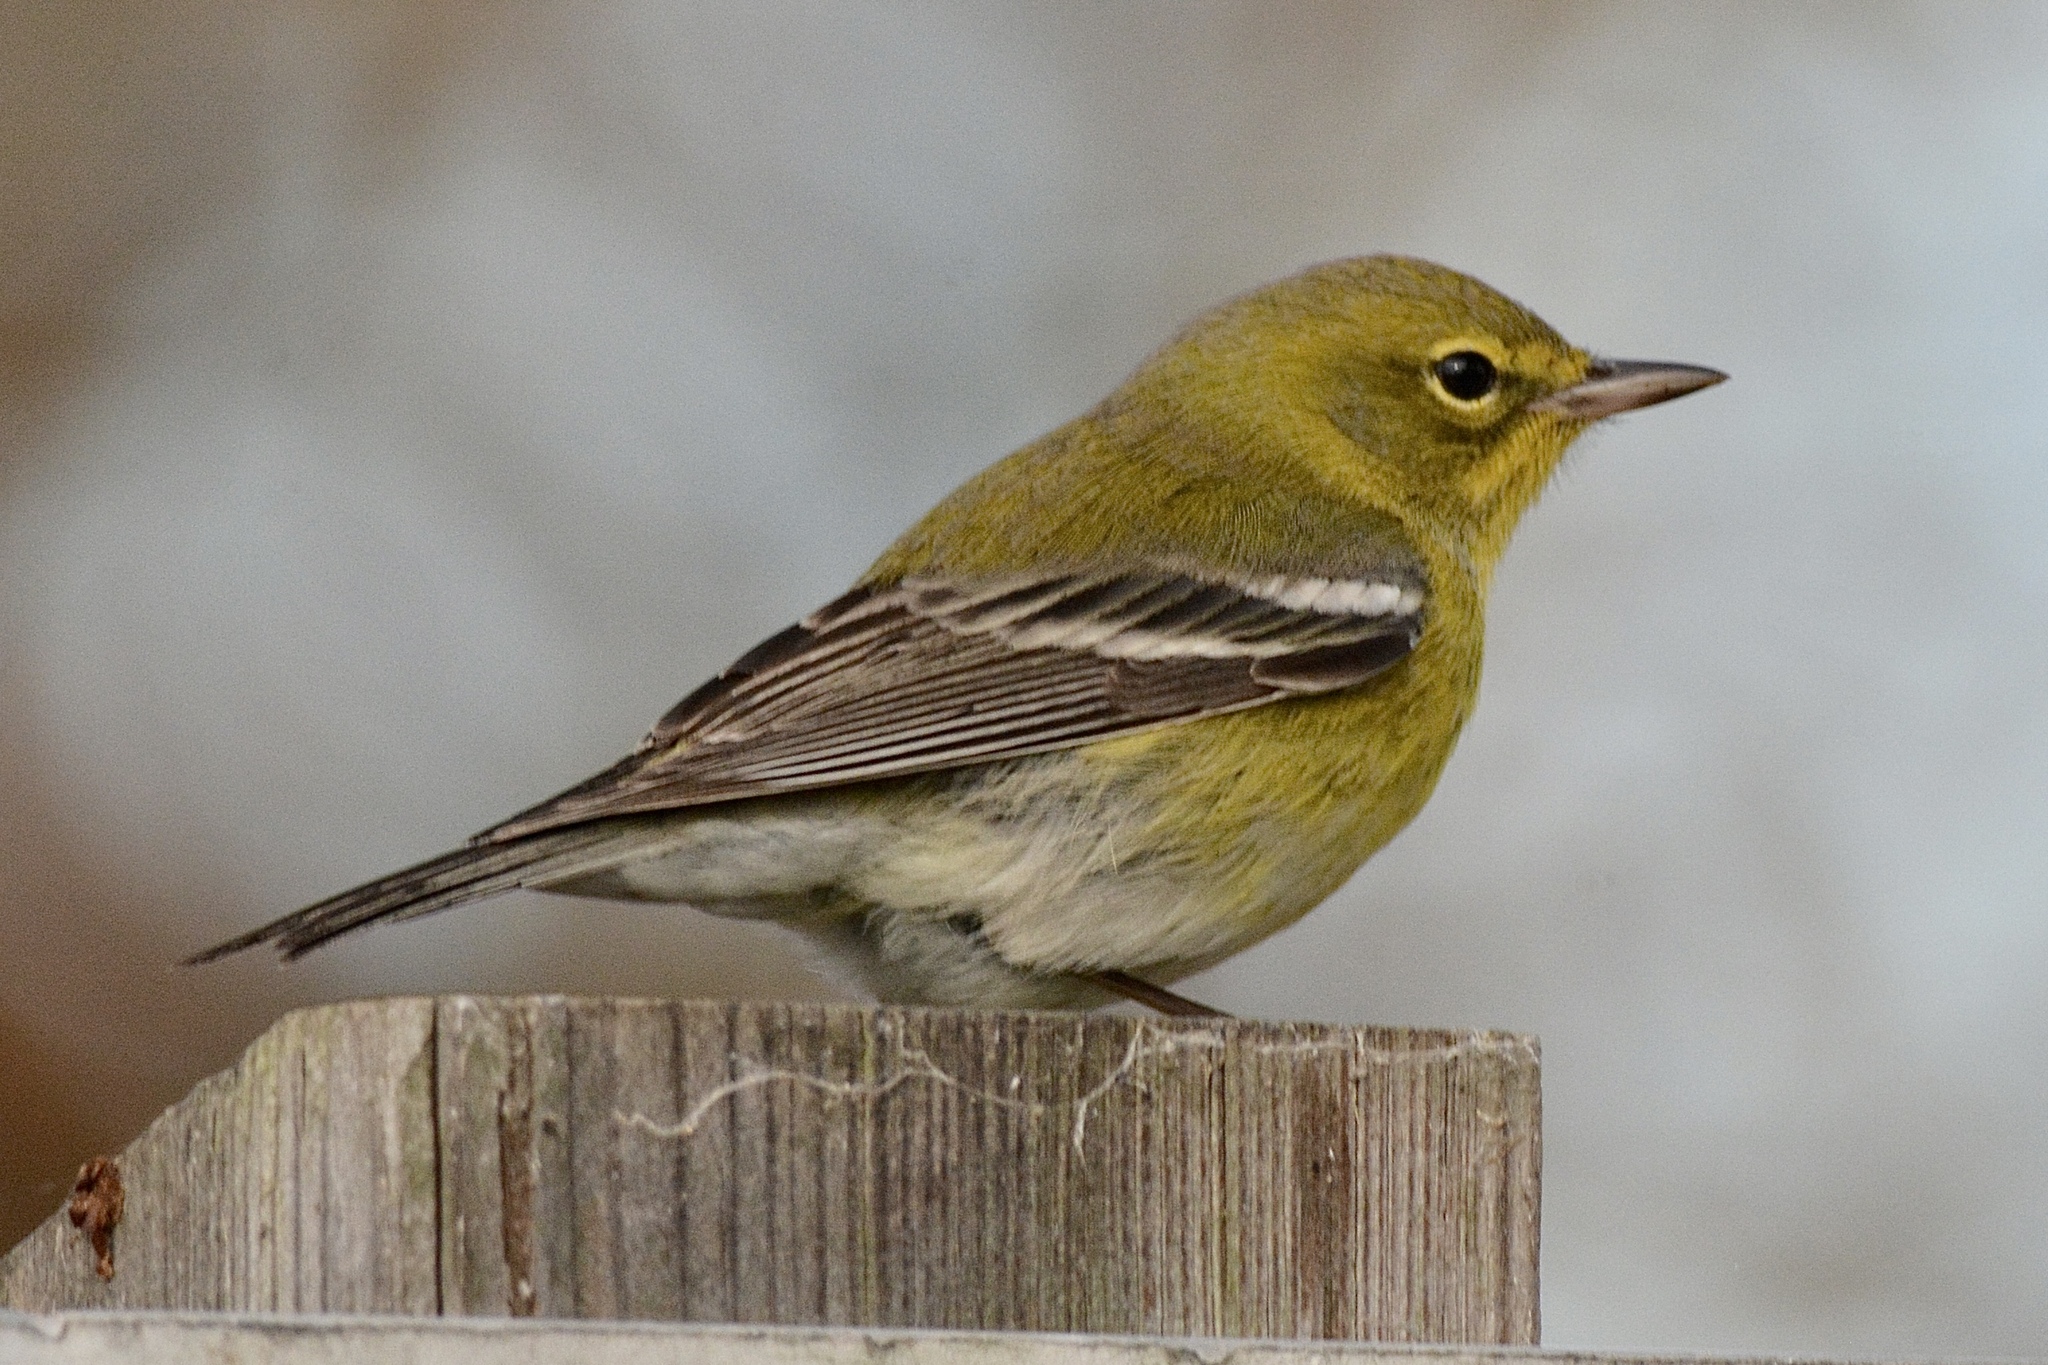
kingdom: Animalia
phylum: Chordata
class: Aves
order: Passeriformes
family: Parulidae
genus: Setophaga
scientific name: Setophaga pinus
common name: Pine warbler
